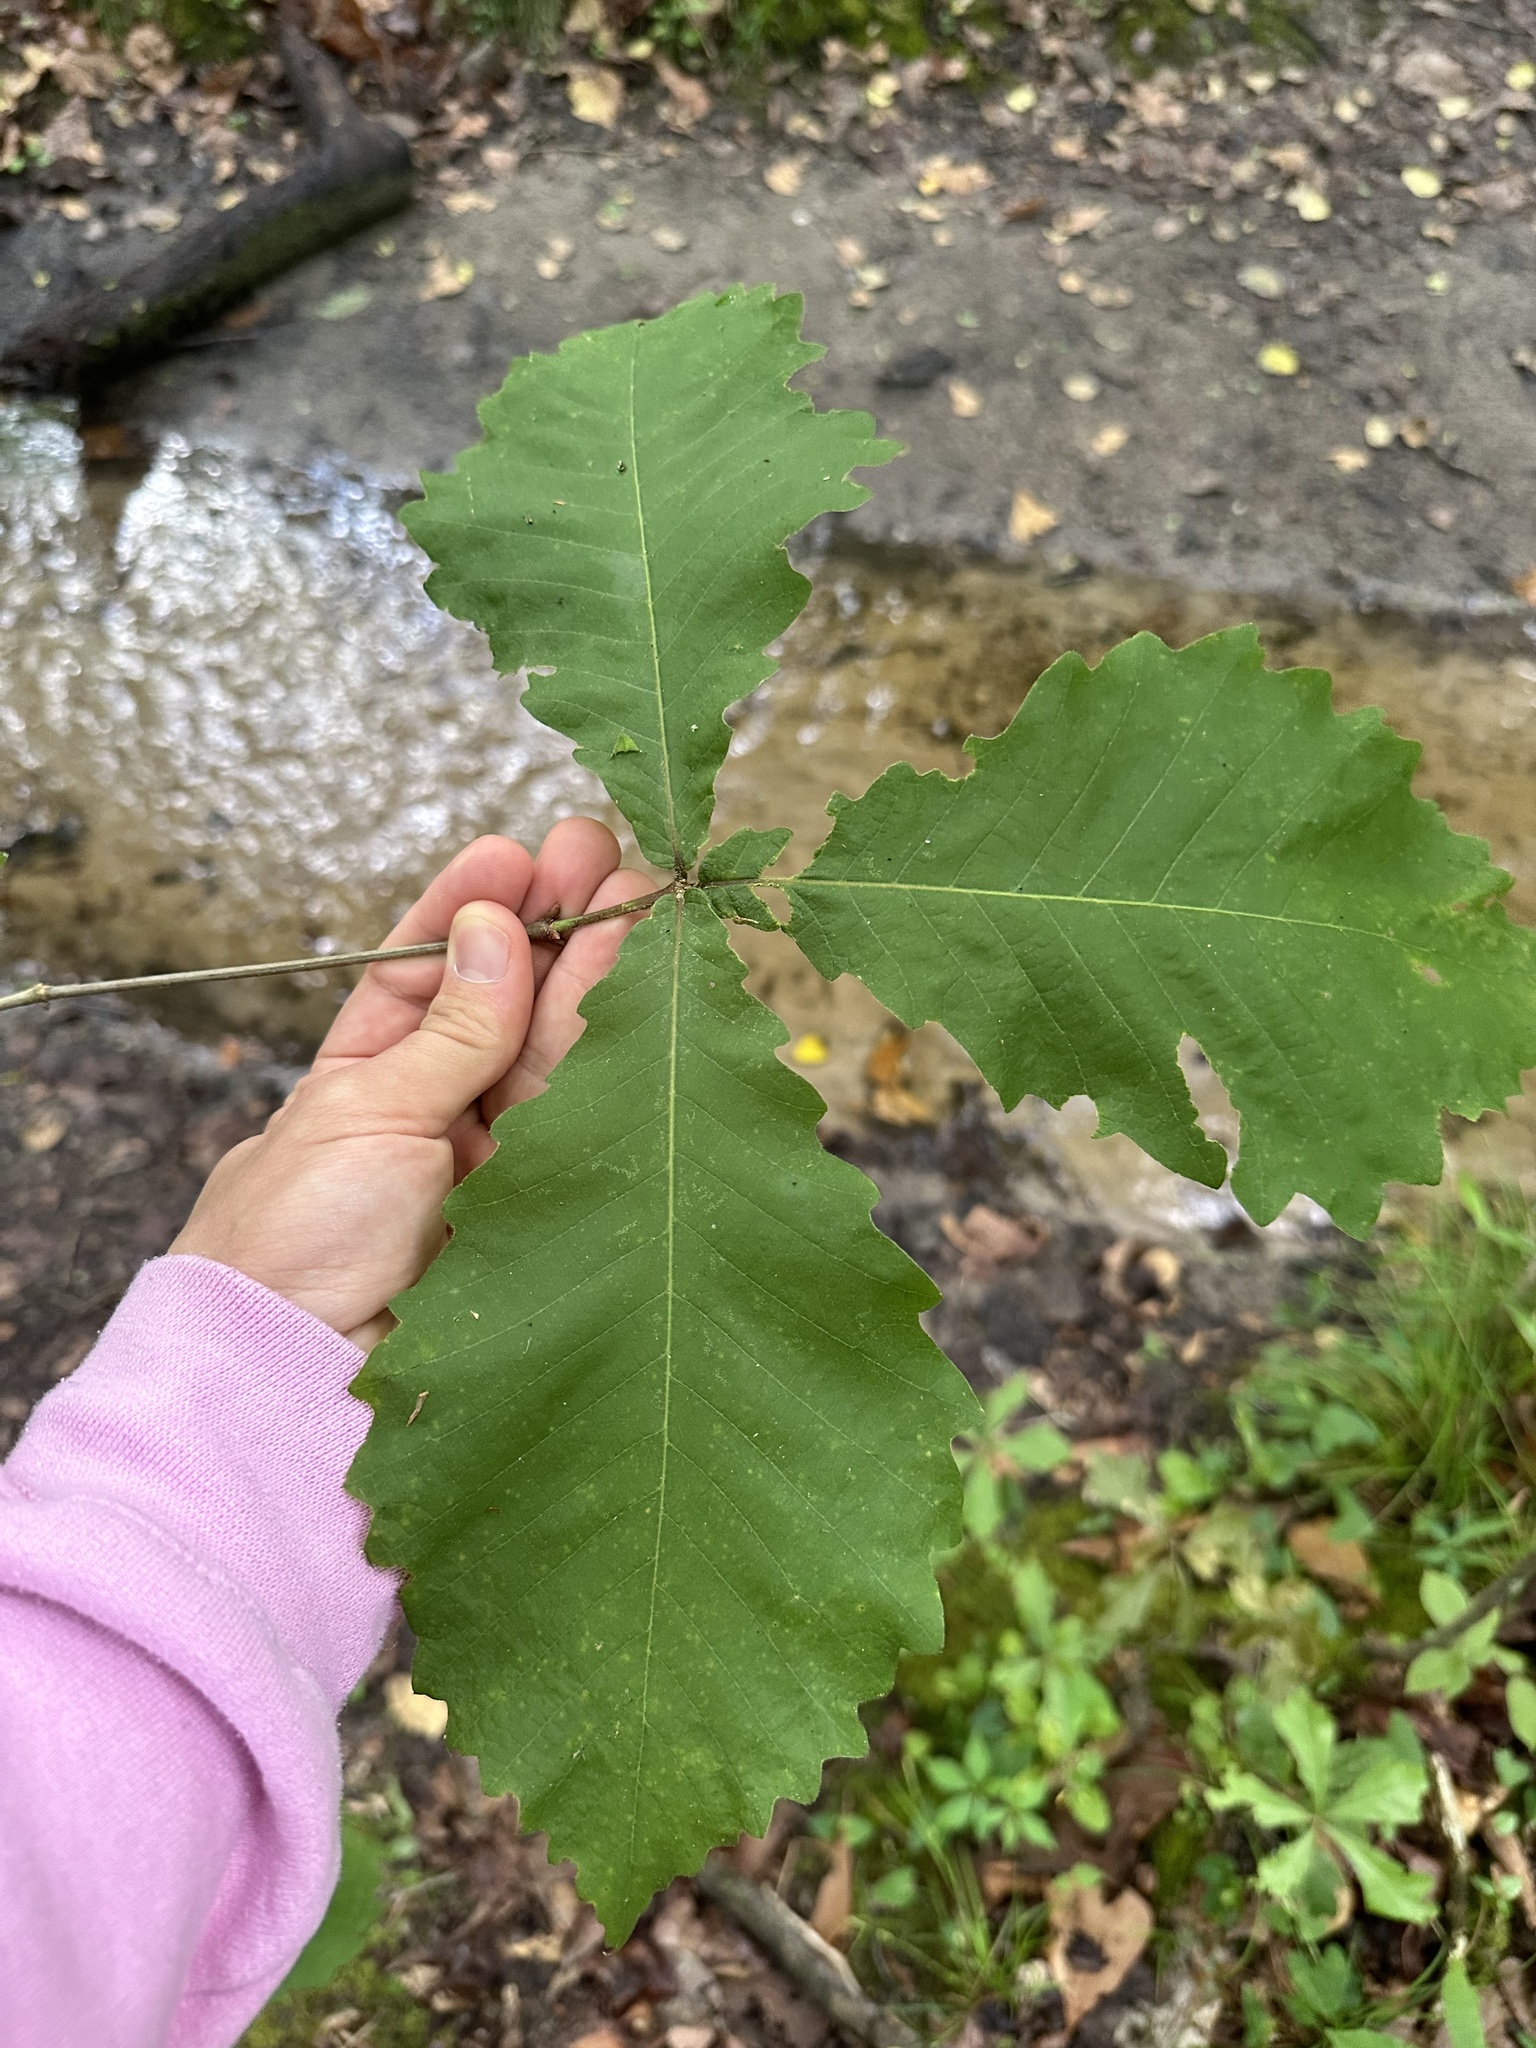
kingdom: Plantae
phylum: Tracheophyta
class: Magnoliopsida
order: Fagales
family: Fagaceae
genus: Quercus
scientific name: Quercus michauxii
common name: Swamp chestnut oak
